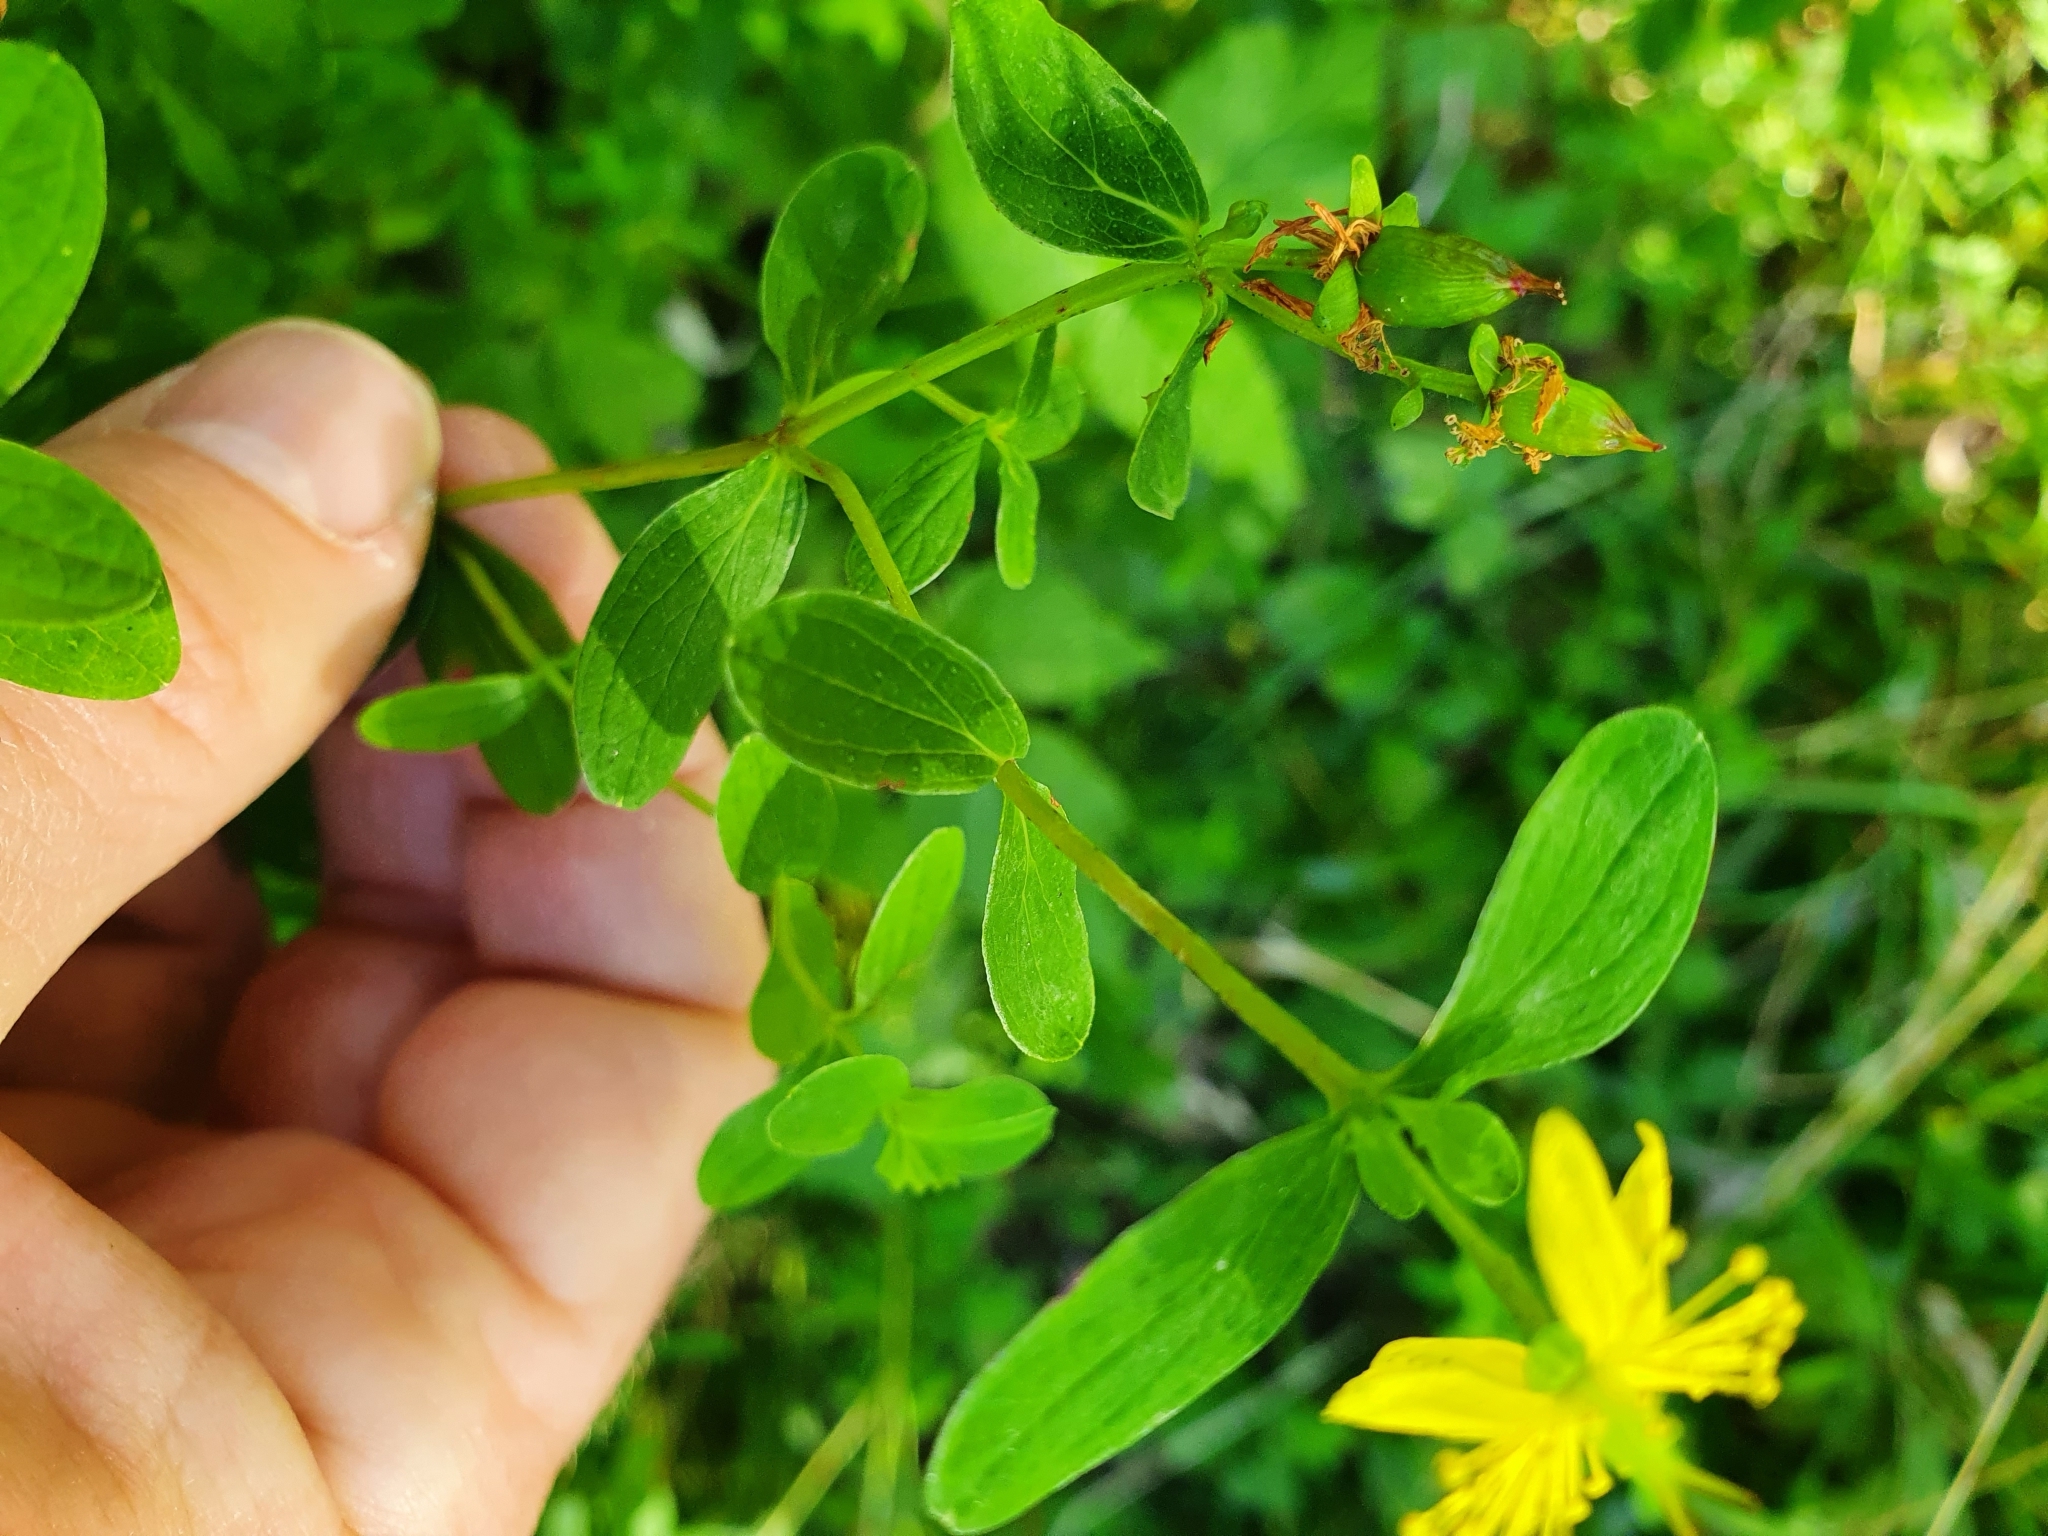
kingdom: Plantae
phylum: Tracheophyta
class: Magnoliopsida
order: Malpighiales
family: Hypericaceae
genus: Hypericum
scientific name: Hypericum maculatum
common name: Imperforate st. john's-wort
